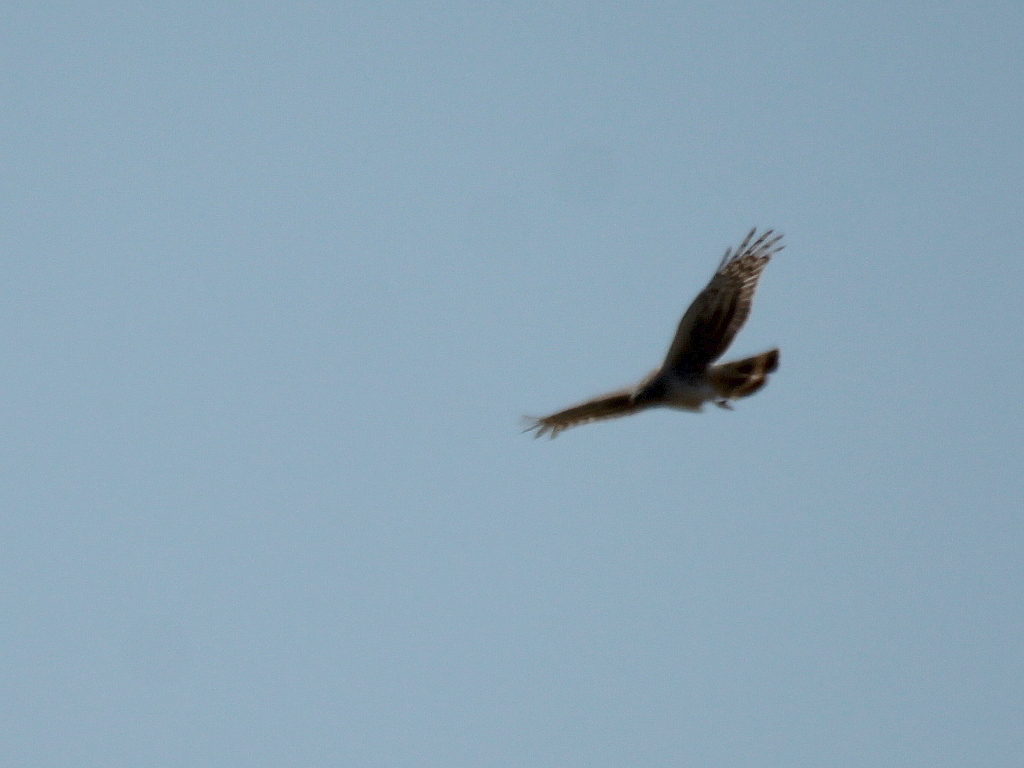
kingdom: Animalia
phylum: Chordata
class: Aves
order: Accipitriformes
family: Accipitridae
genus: Circus
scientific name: Circus cyaneus
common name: Hen harrier
